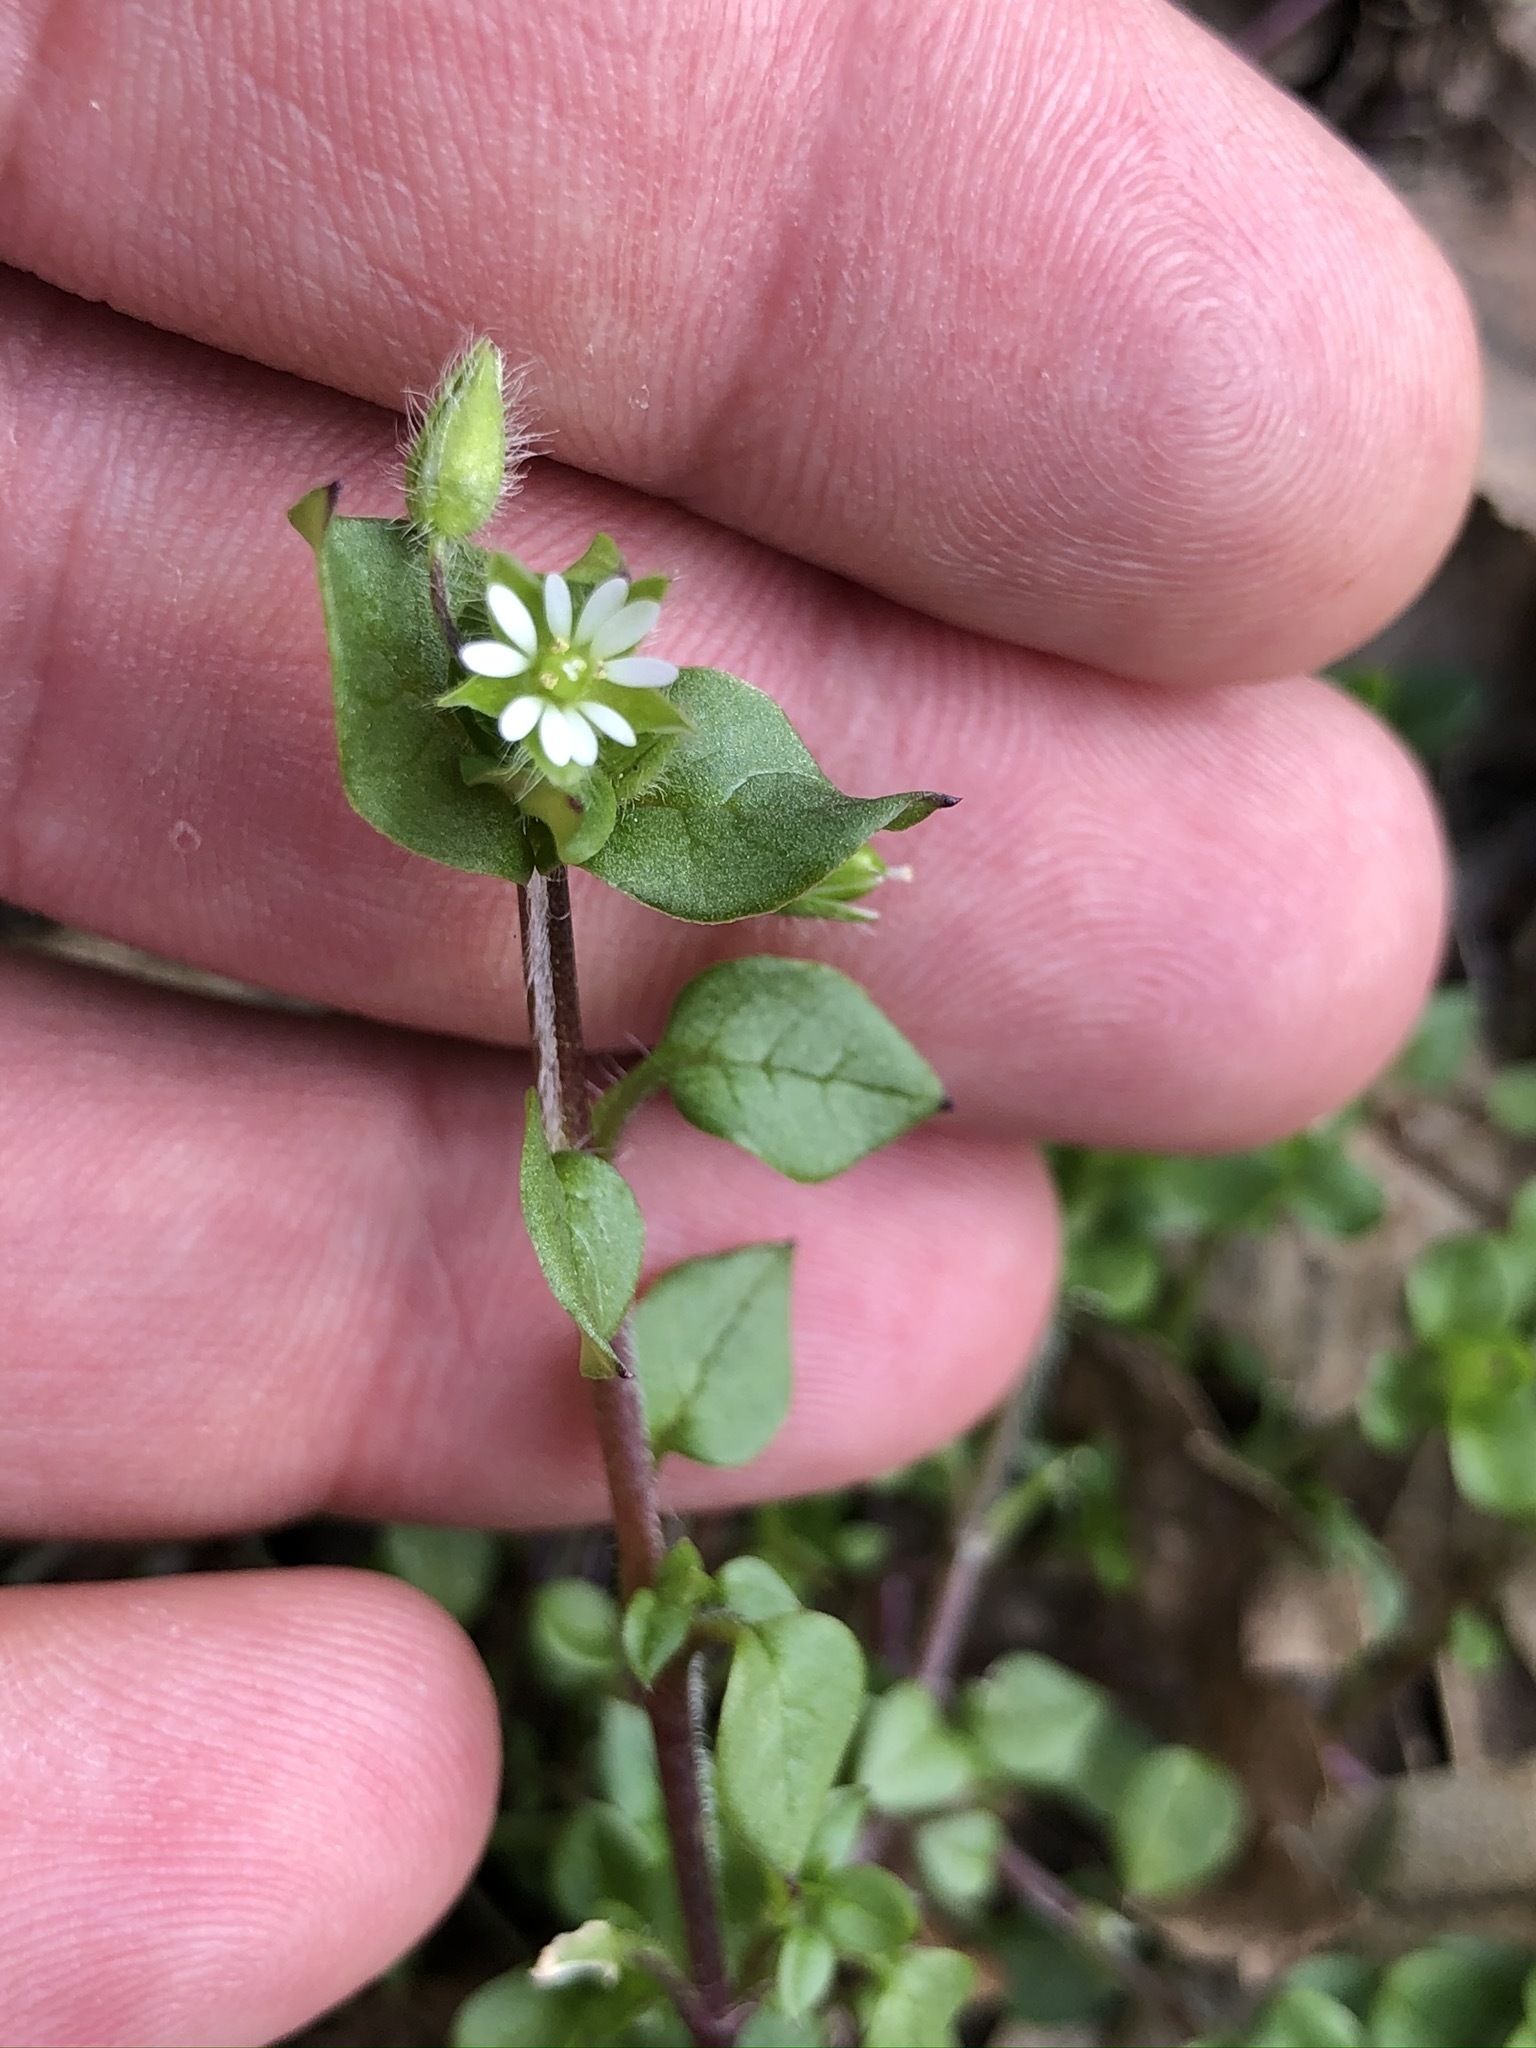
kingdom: Plantae
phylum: Tracheophyta
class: Magnoliopsida
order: Caryophyllales
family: Caryophyllaceae
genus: Stellaria
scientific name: Stellaria media
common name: Common chickweed
